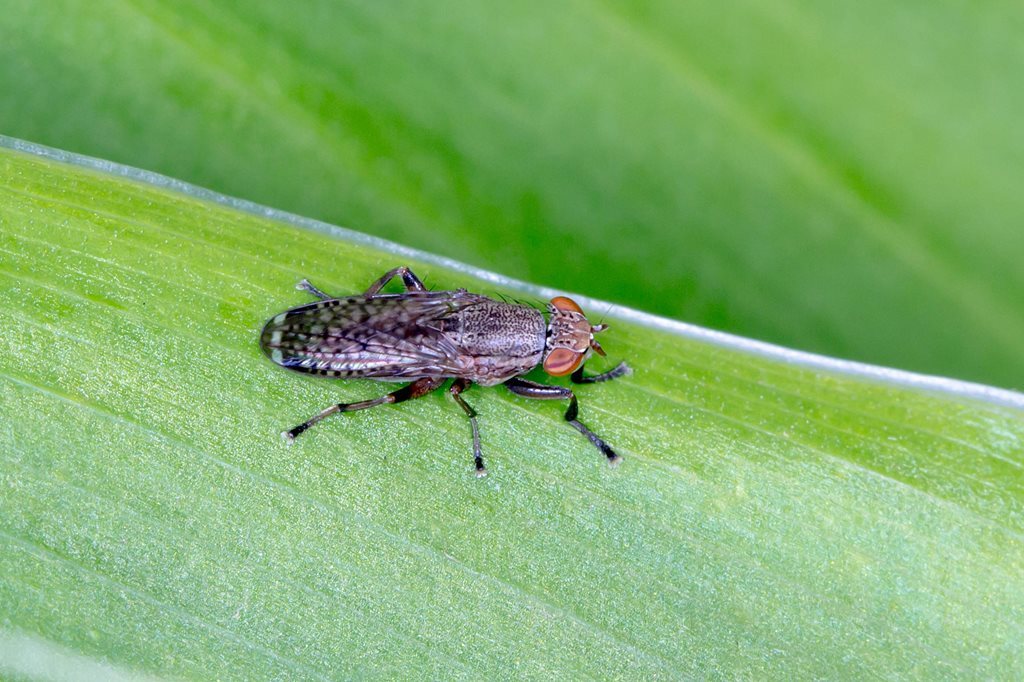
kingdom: Animalia
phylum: Arthropoda
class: Insecta
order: Diptera
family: Sciomyzidae
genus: Pherbellia
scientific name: Pherbellia javana
